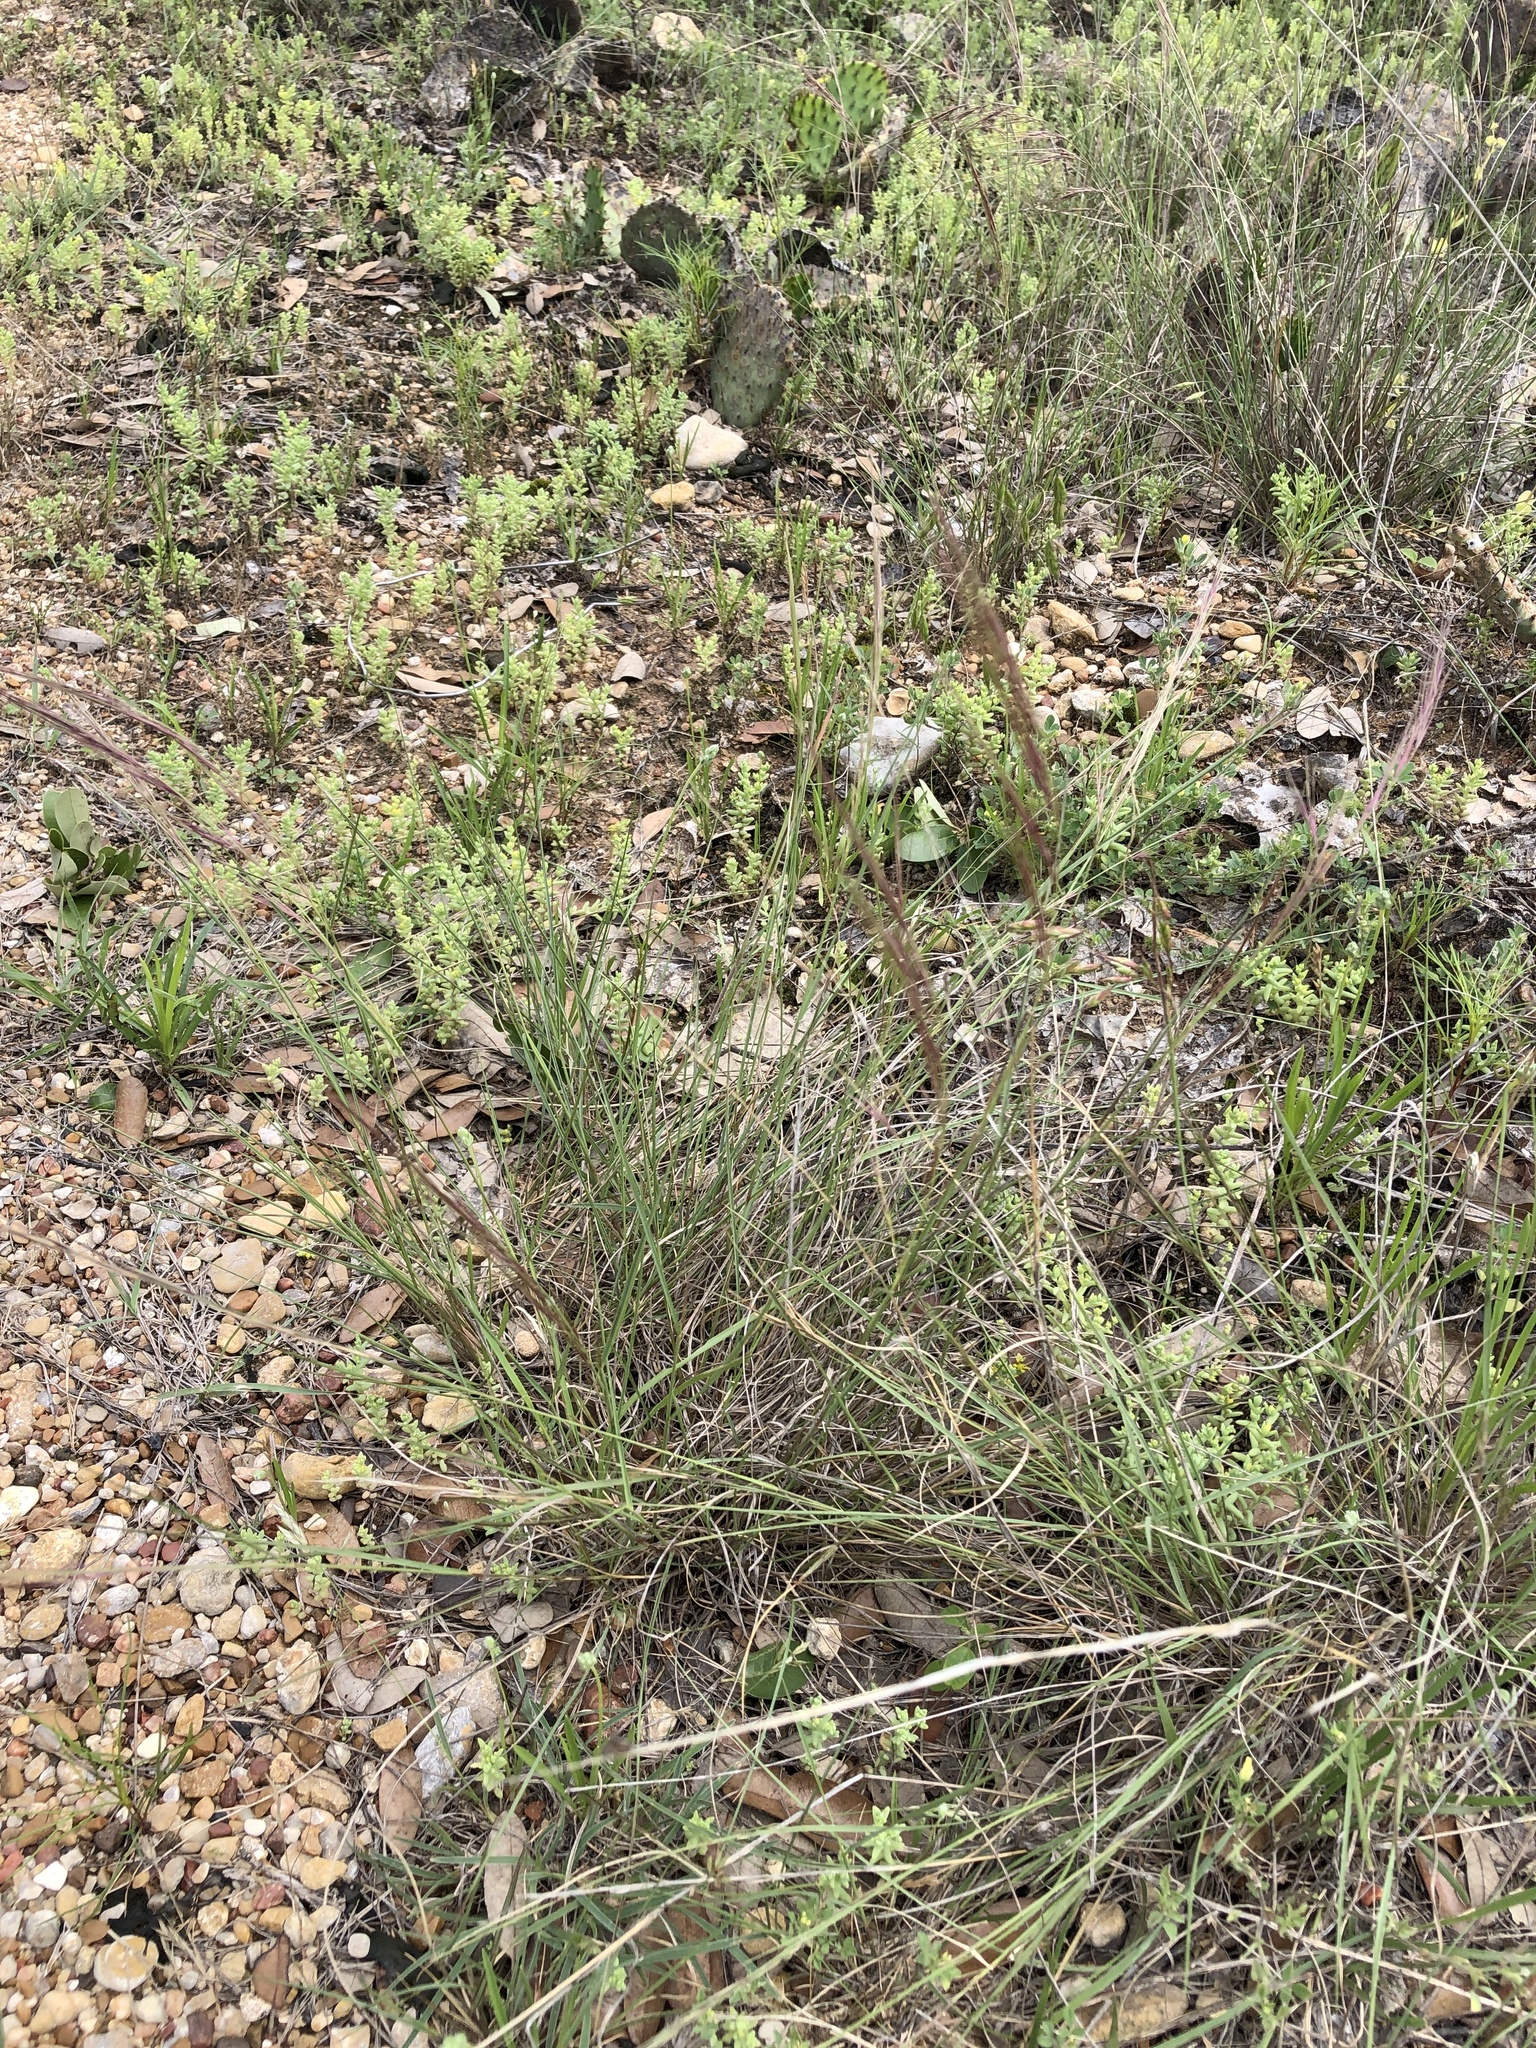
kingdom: Plantae
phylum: Tracheophyta
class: Liliopsida
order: Poales
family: Poaceae
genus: Aristida
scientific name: Aristida purpurea
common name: Purple threeawn
